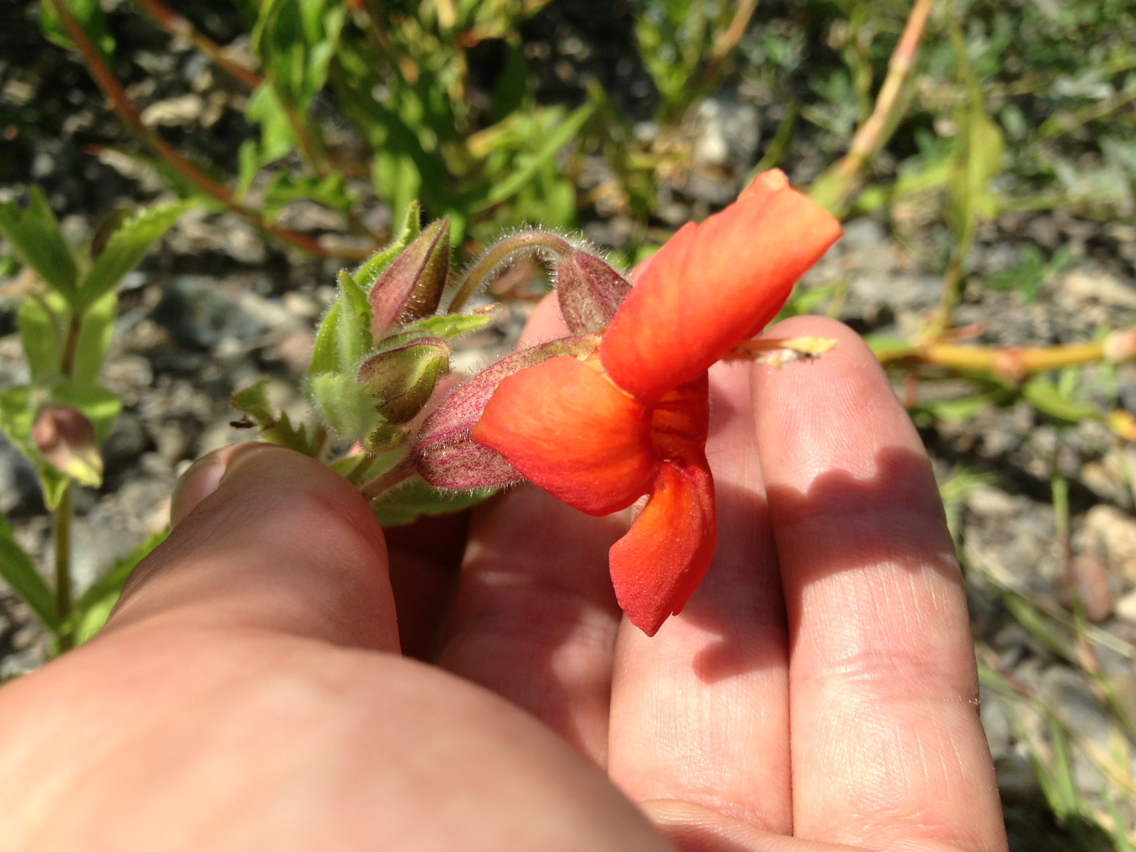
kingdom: Plantae
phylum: Tracheophyta
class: Magnoliopsida
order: Lamiales
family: Phrymaceae
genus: Erythranthe
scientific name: Erythranthe cardinalis
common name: Scarlet monkey-flower
